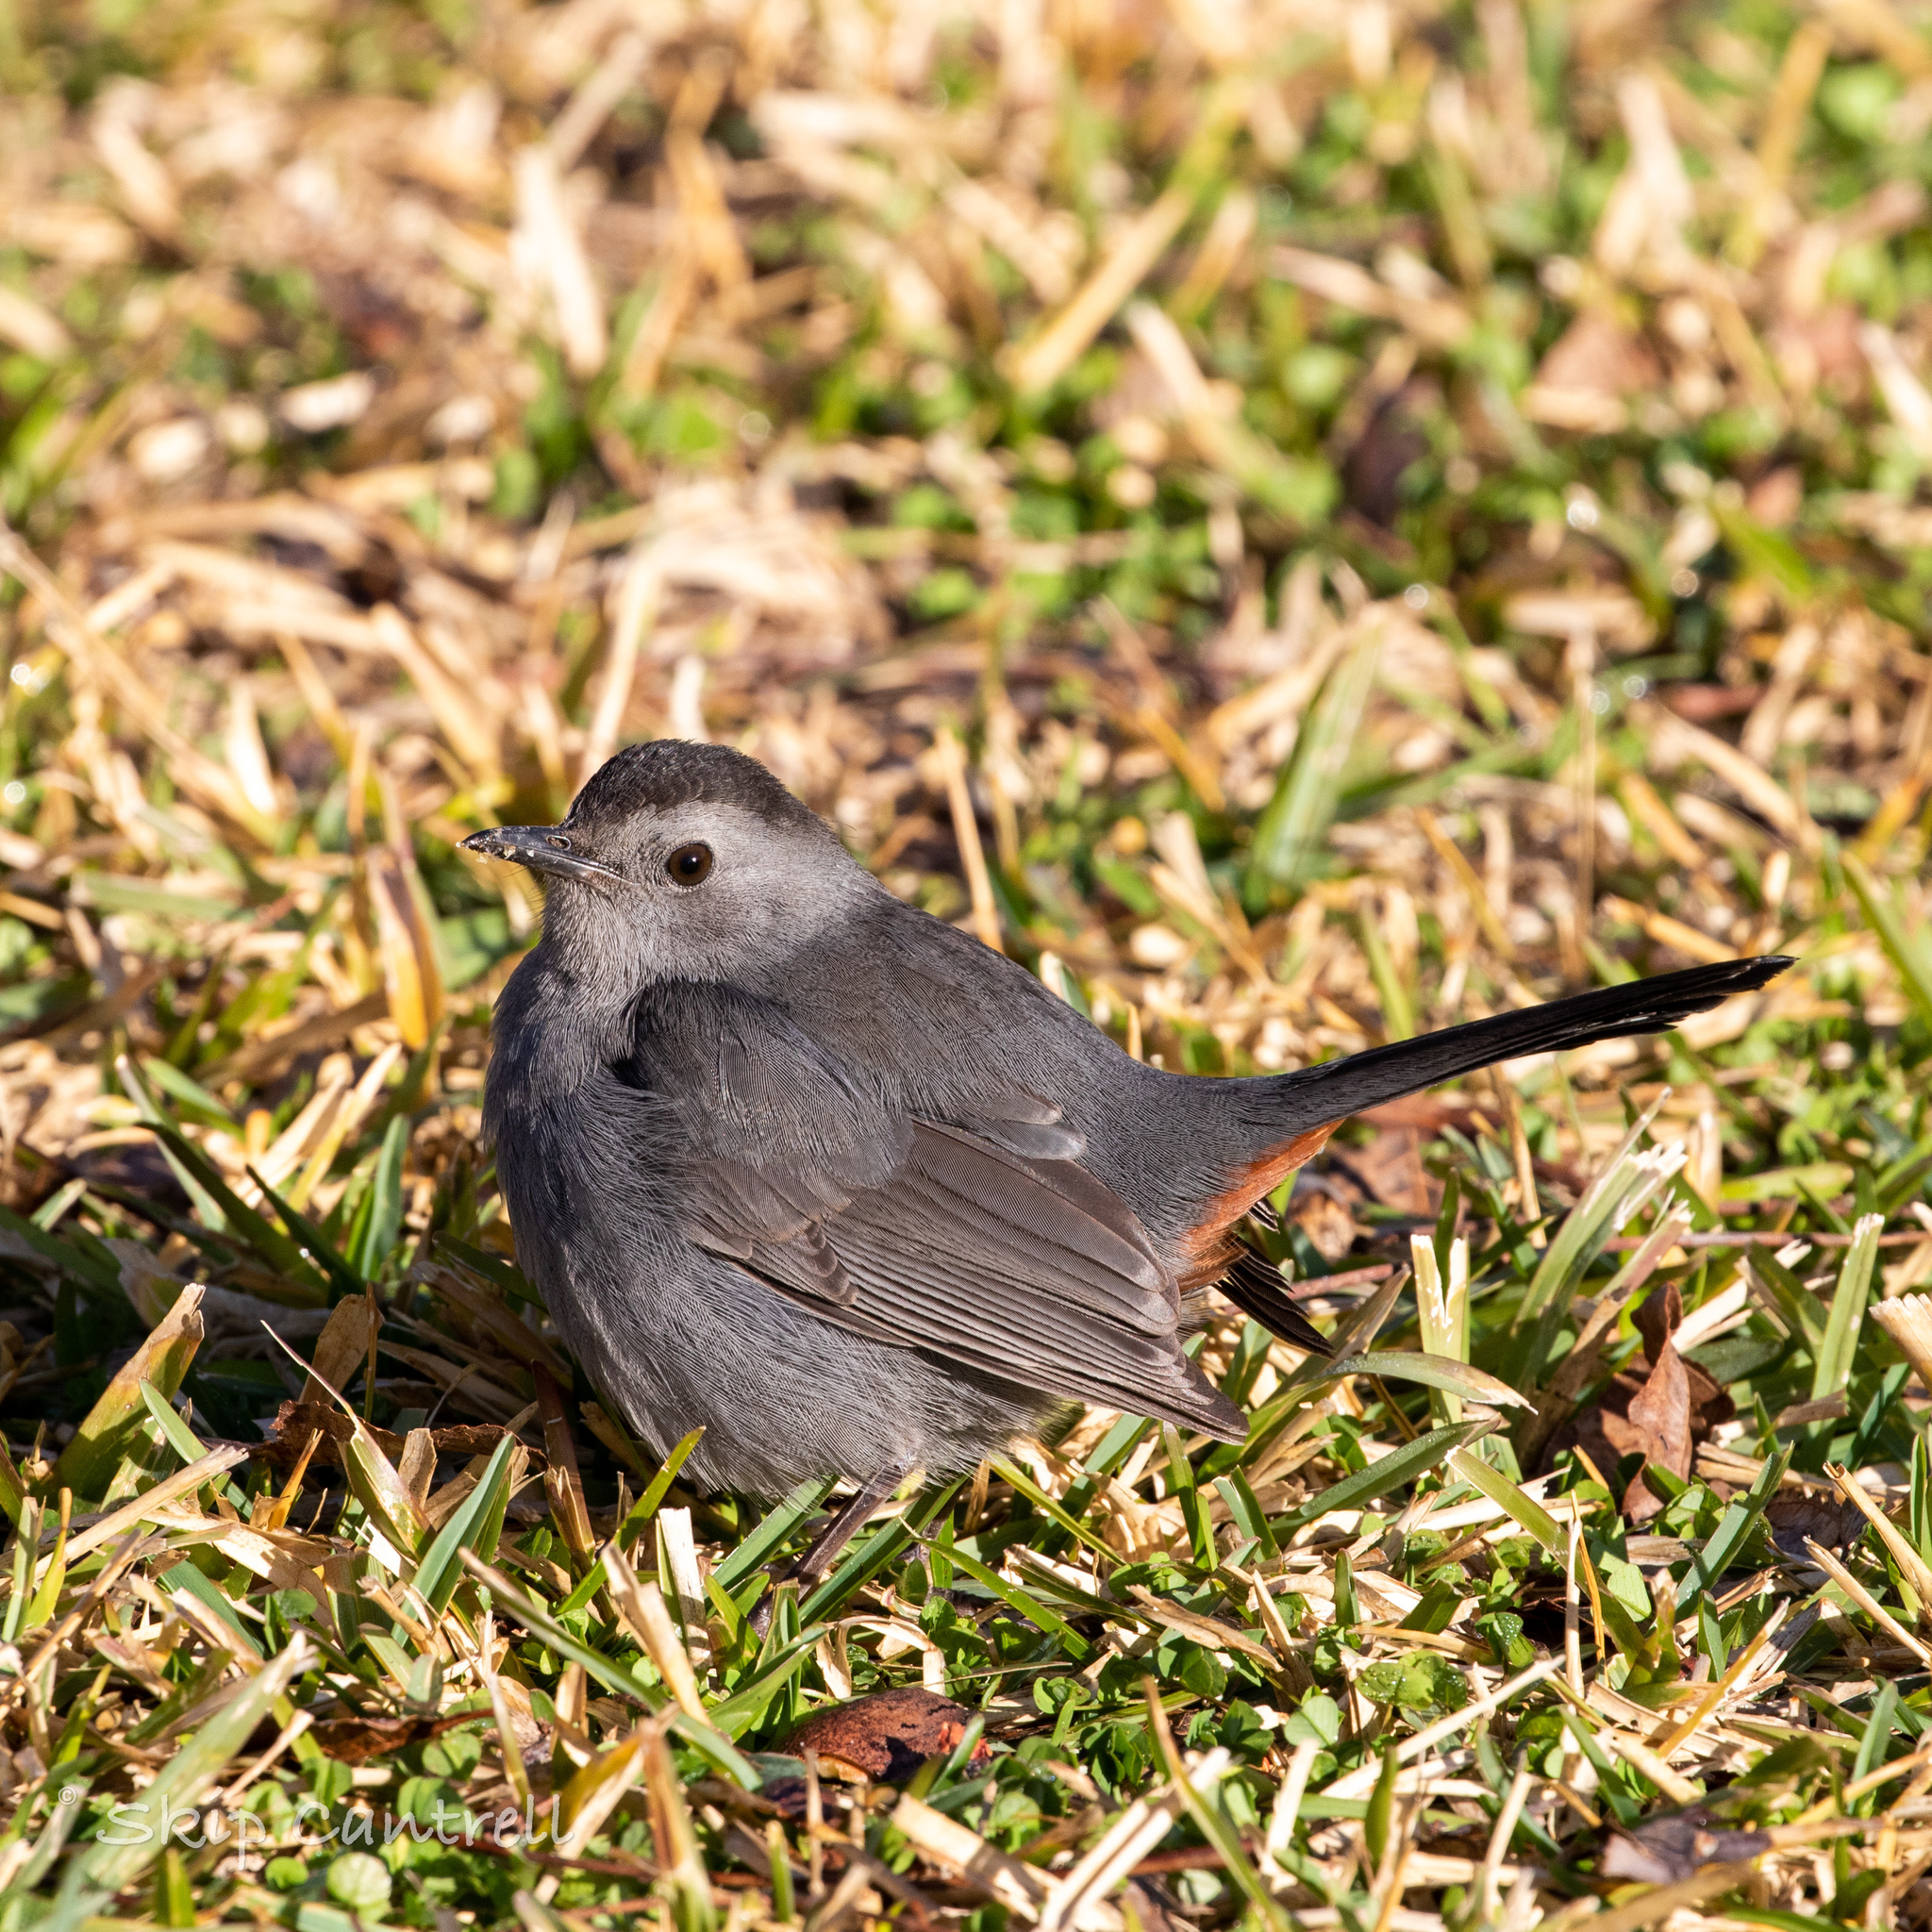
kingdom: Animalia
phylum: Chordata
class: Aves
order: Passeriformes
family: Mimidae
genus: Dumetella
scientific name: Dumetella carolinensis
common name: Gray catbird
